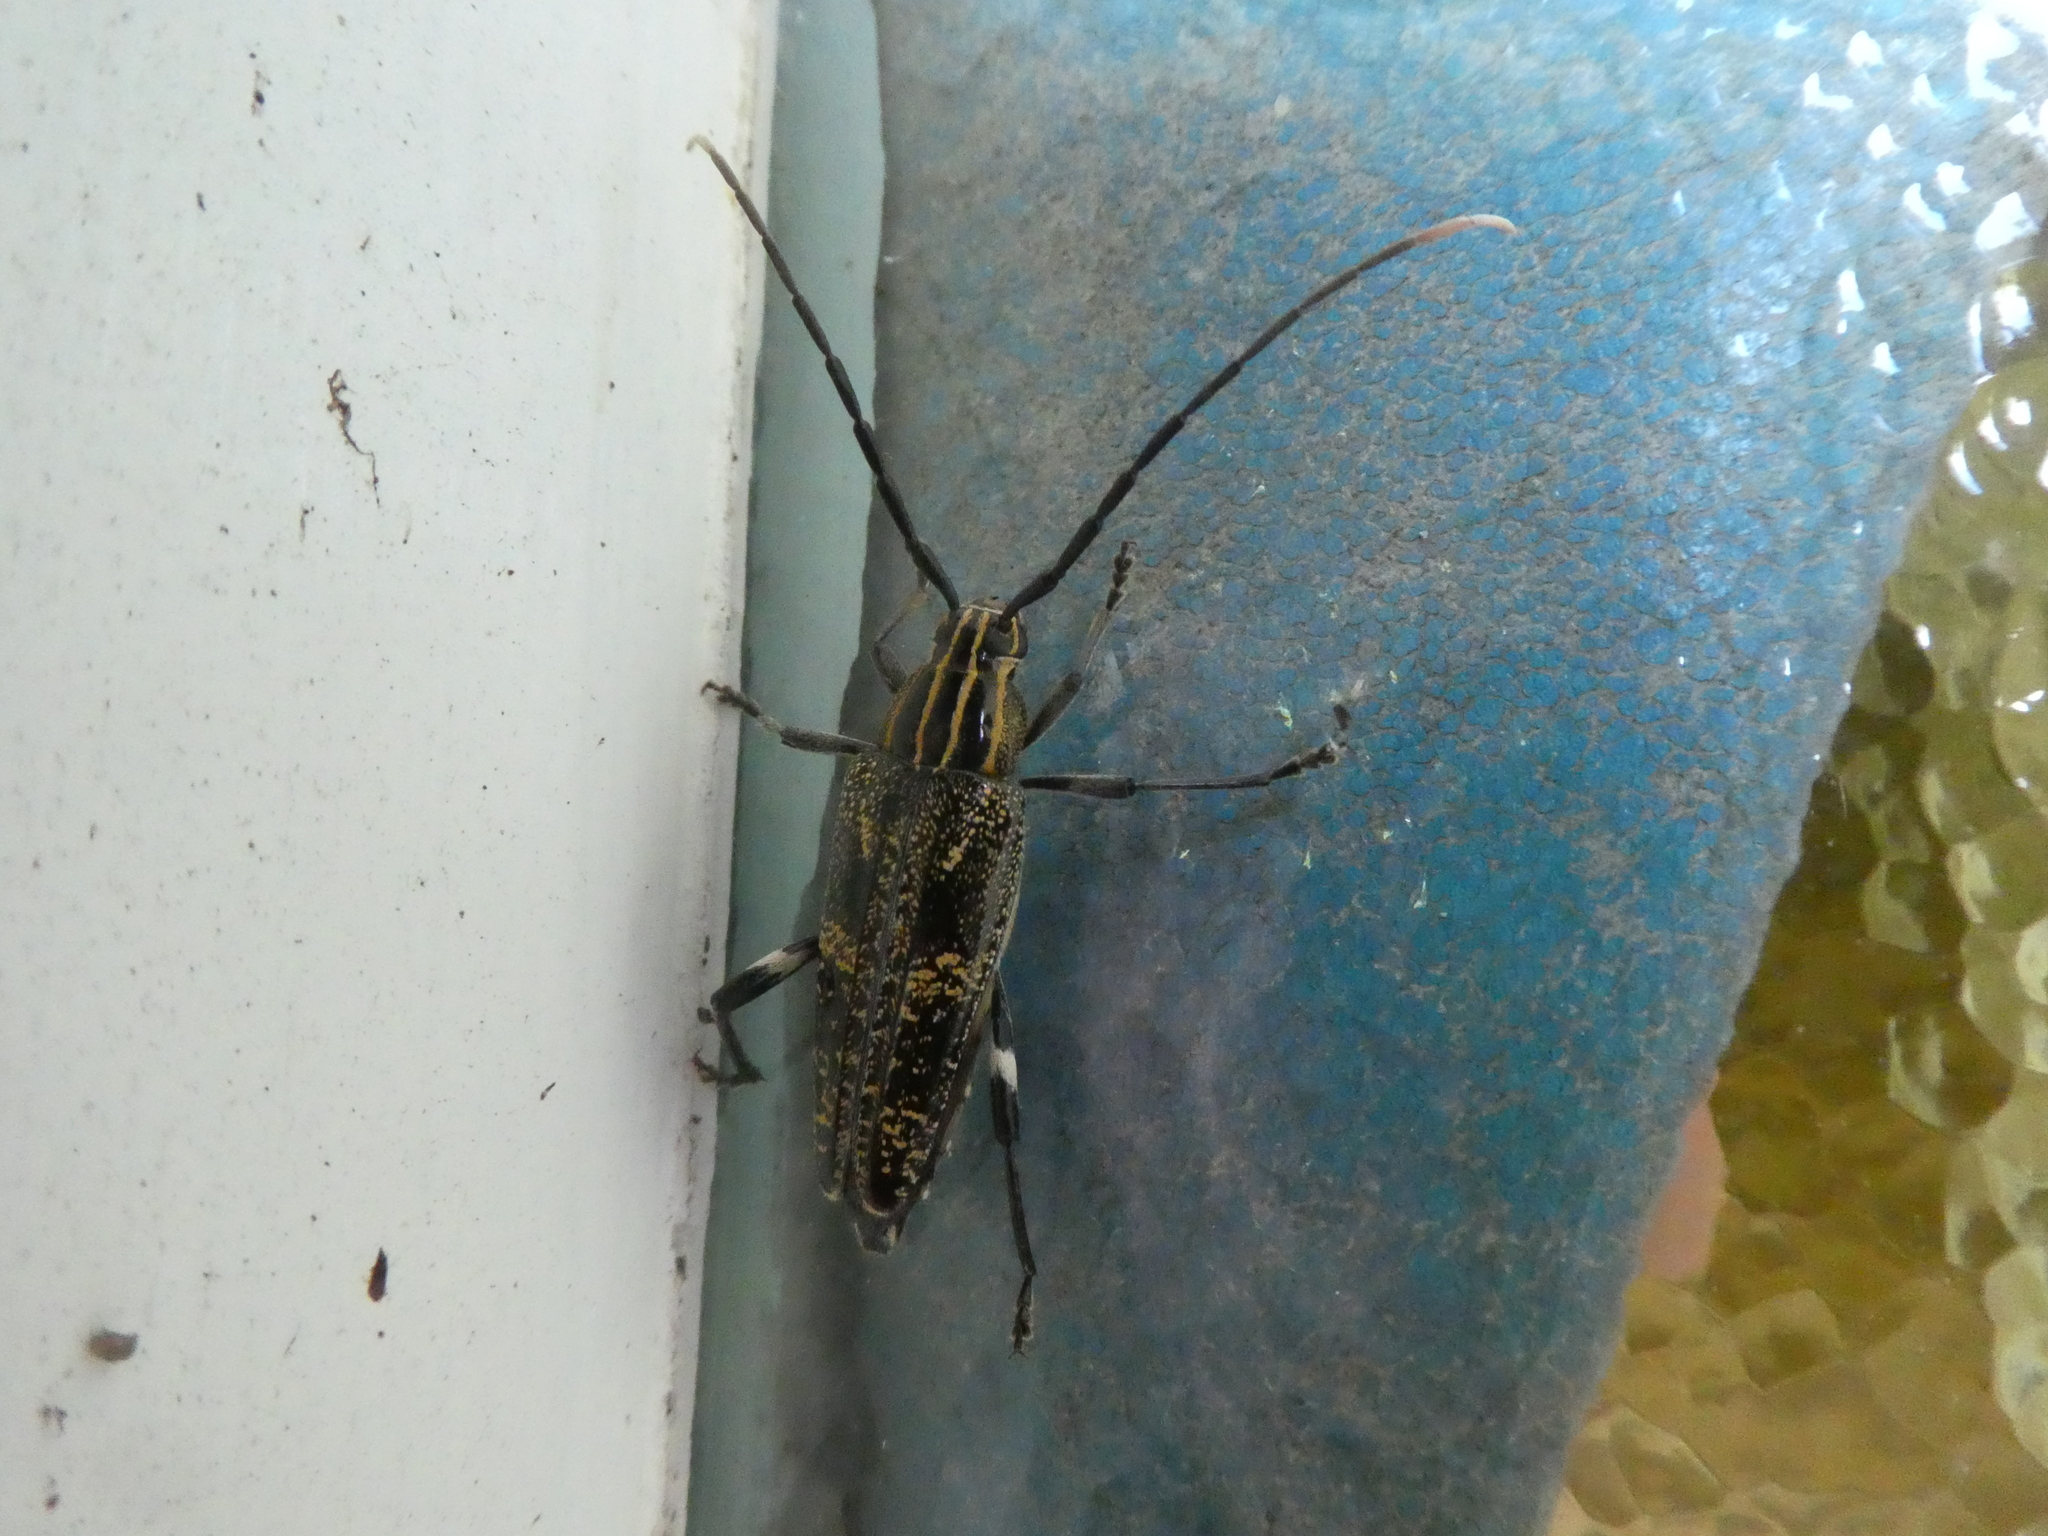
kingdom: Animalia
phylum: Arthropoda
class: Insecta
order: Coleoptera
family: Cerambycidae
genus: Coptomma
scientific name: Coptomma variegatum
